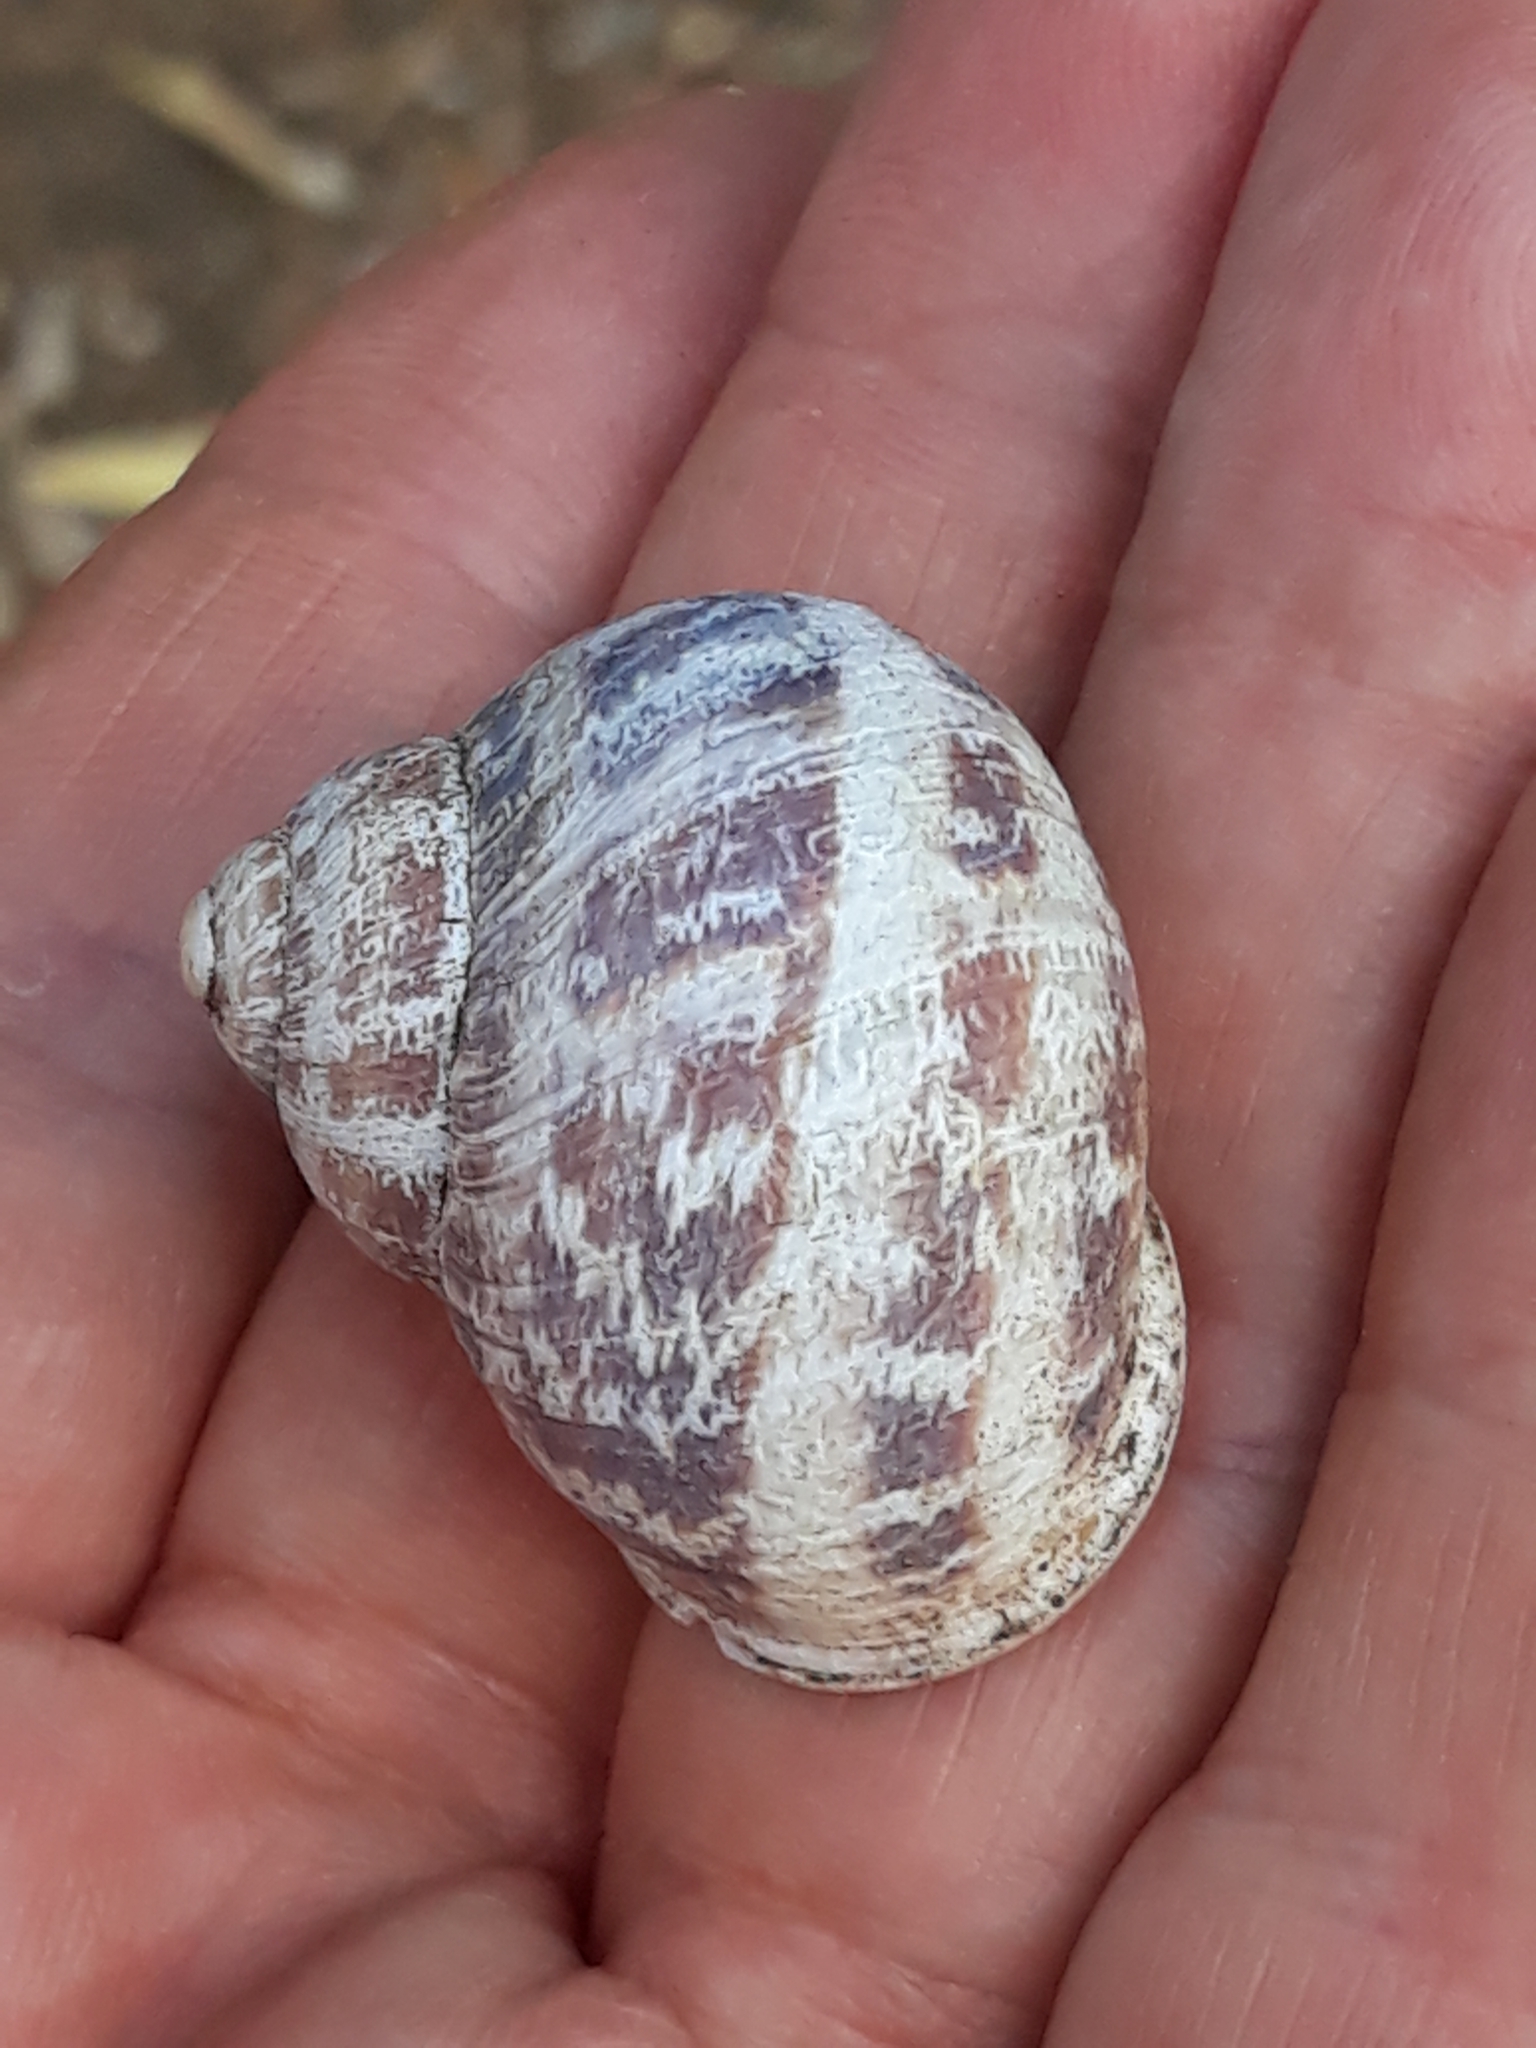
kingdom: Animalia
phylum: Mollusca
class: Gastropoda
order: Stylommatophora
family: Helicidae
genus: Cornu
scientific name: Cornu aspersum
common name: Brown garden snail
